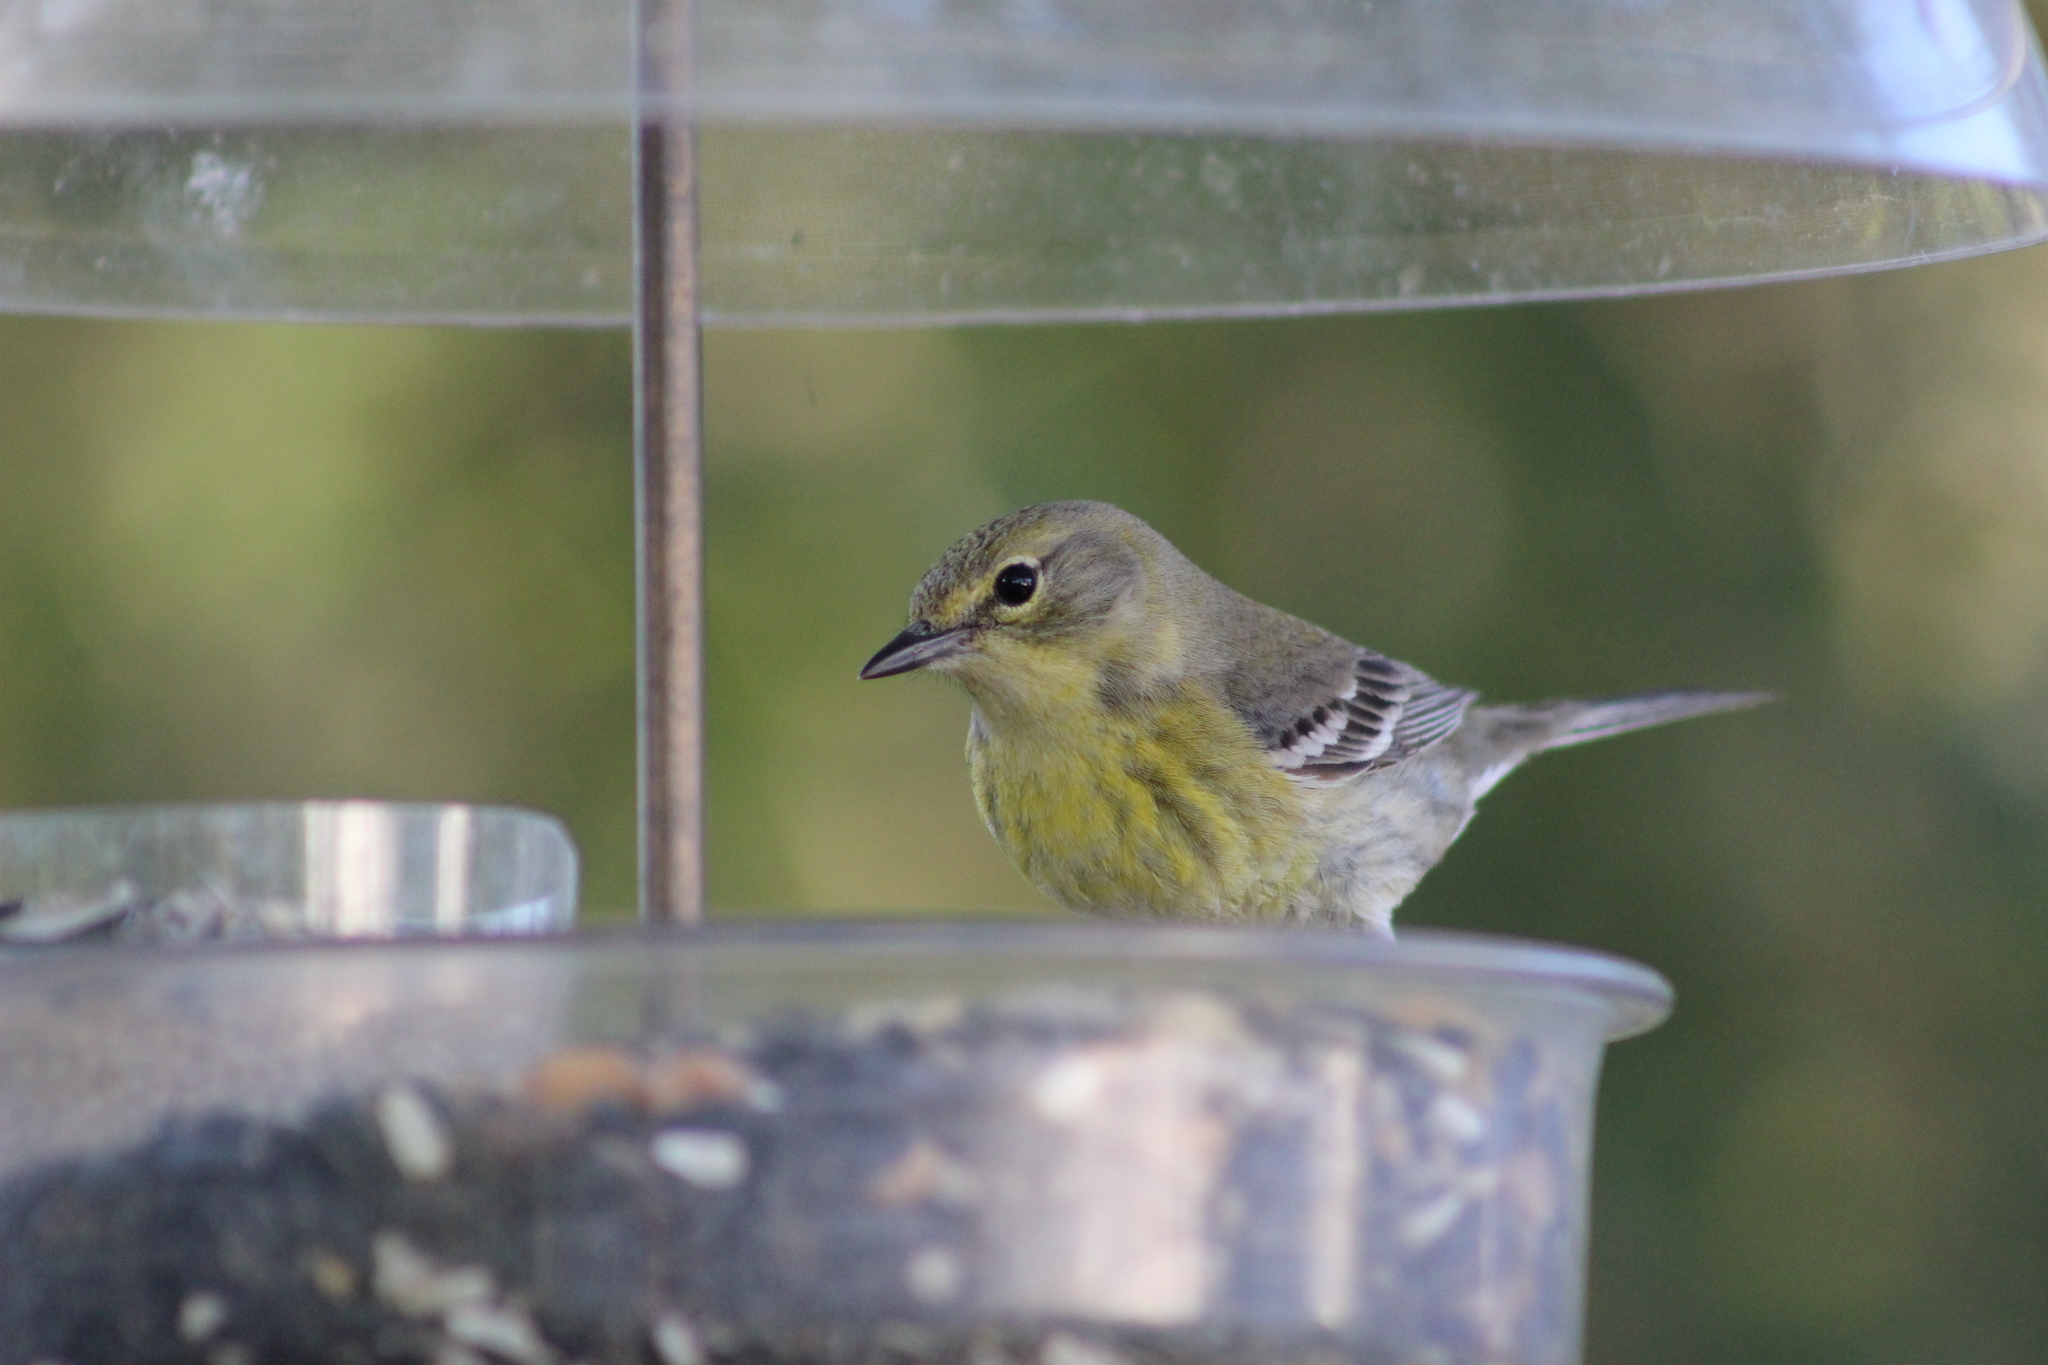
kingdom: Animalia
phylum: Chordata
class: Aves
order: Passeriformes
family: Parulidae
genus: Setophaga
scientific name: Setophaga pinus
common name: Pine warbler
